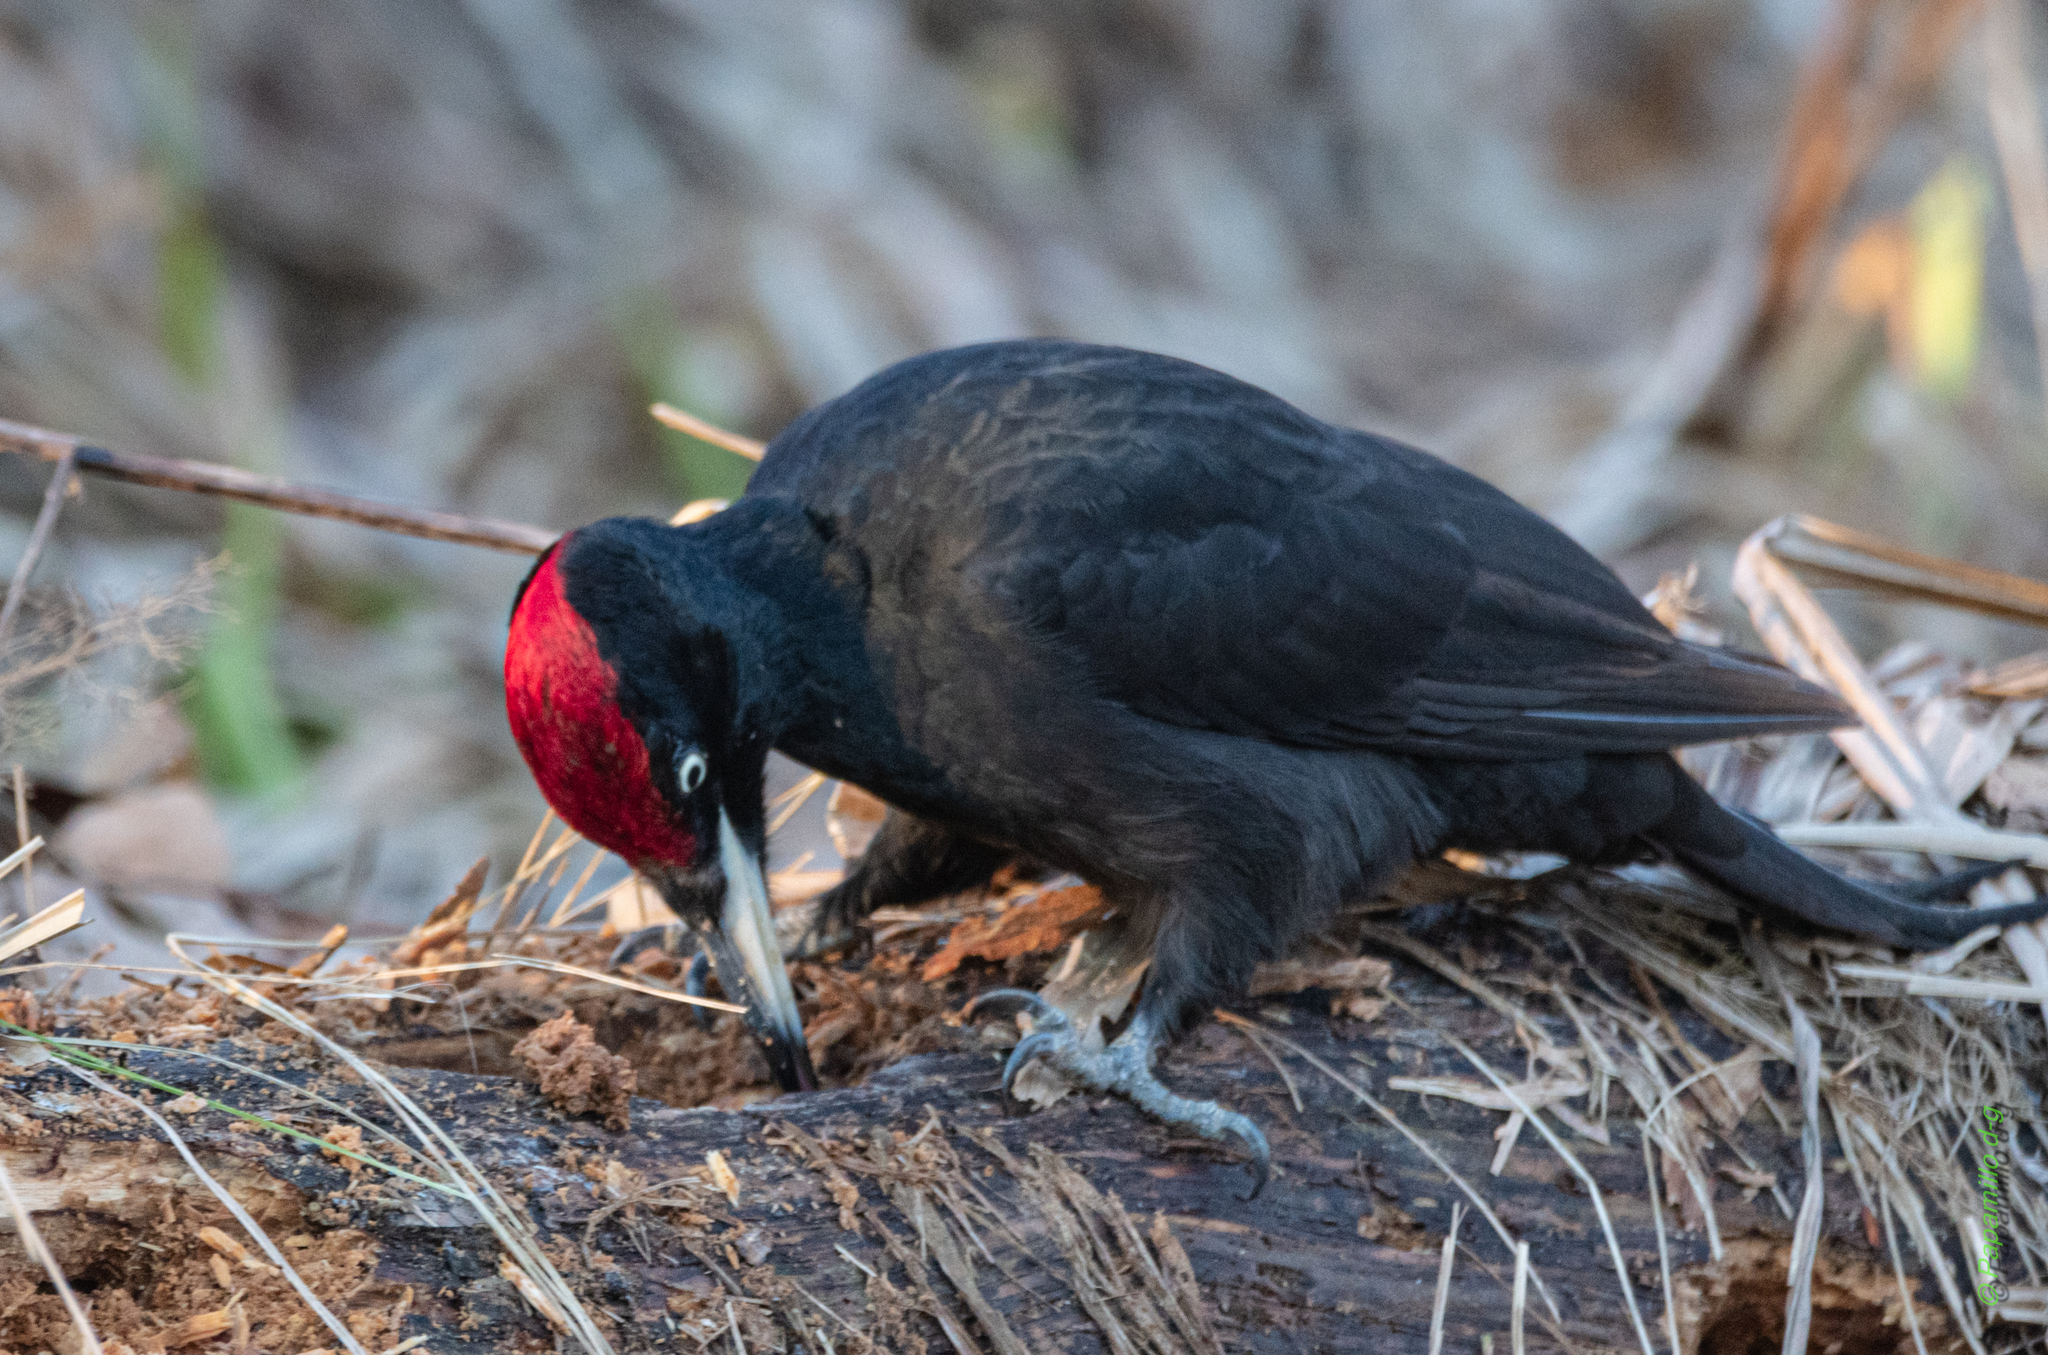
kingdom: Animalia
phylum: Chordata
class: Aves
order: Piciformes
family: Picidae
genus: Dryocopus
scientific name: Dryocopus martius
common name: Black woodpecker
